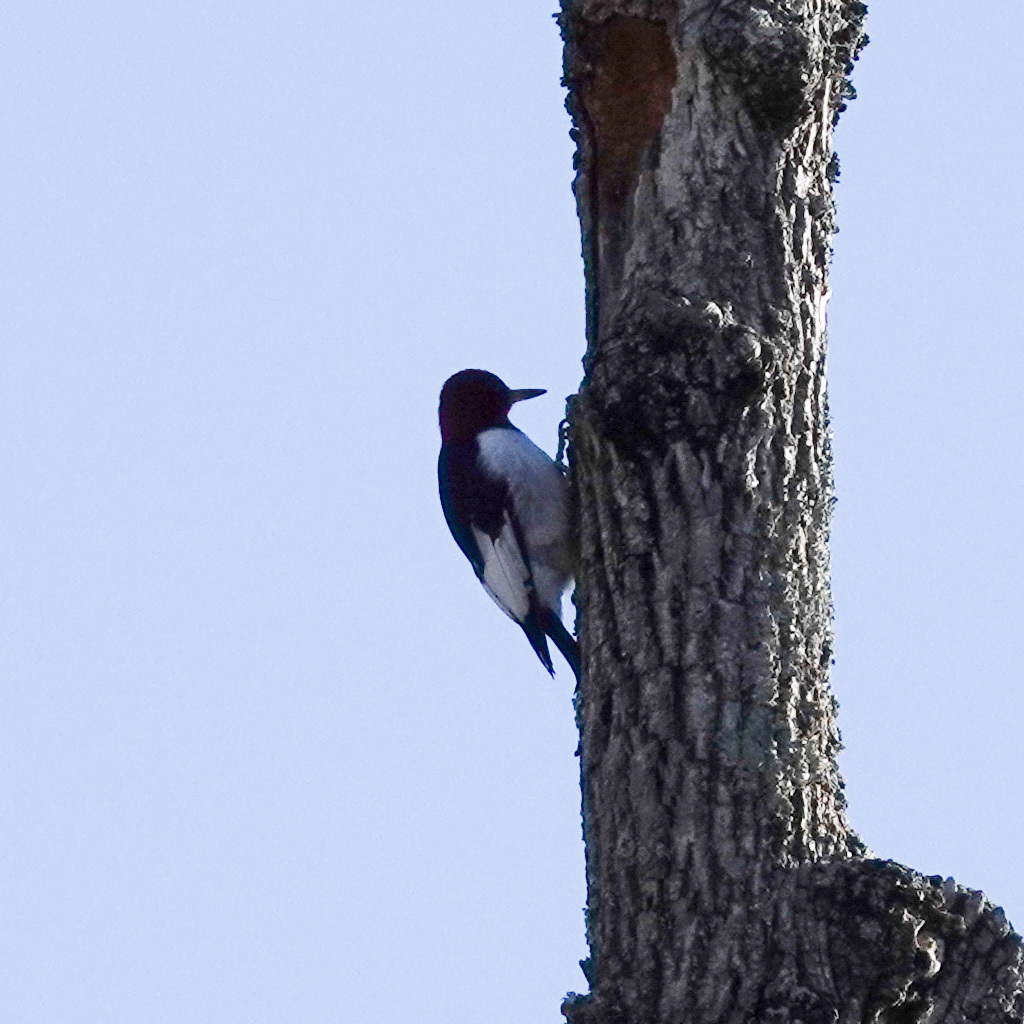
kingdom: Animalia
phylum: Chordata
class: Aves
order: Piciformes
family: Picidae
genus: Melanerpes
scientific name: Melanerpes erythrocephalus
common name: Red-headed woodpecker
